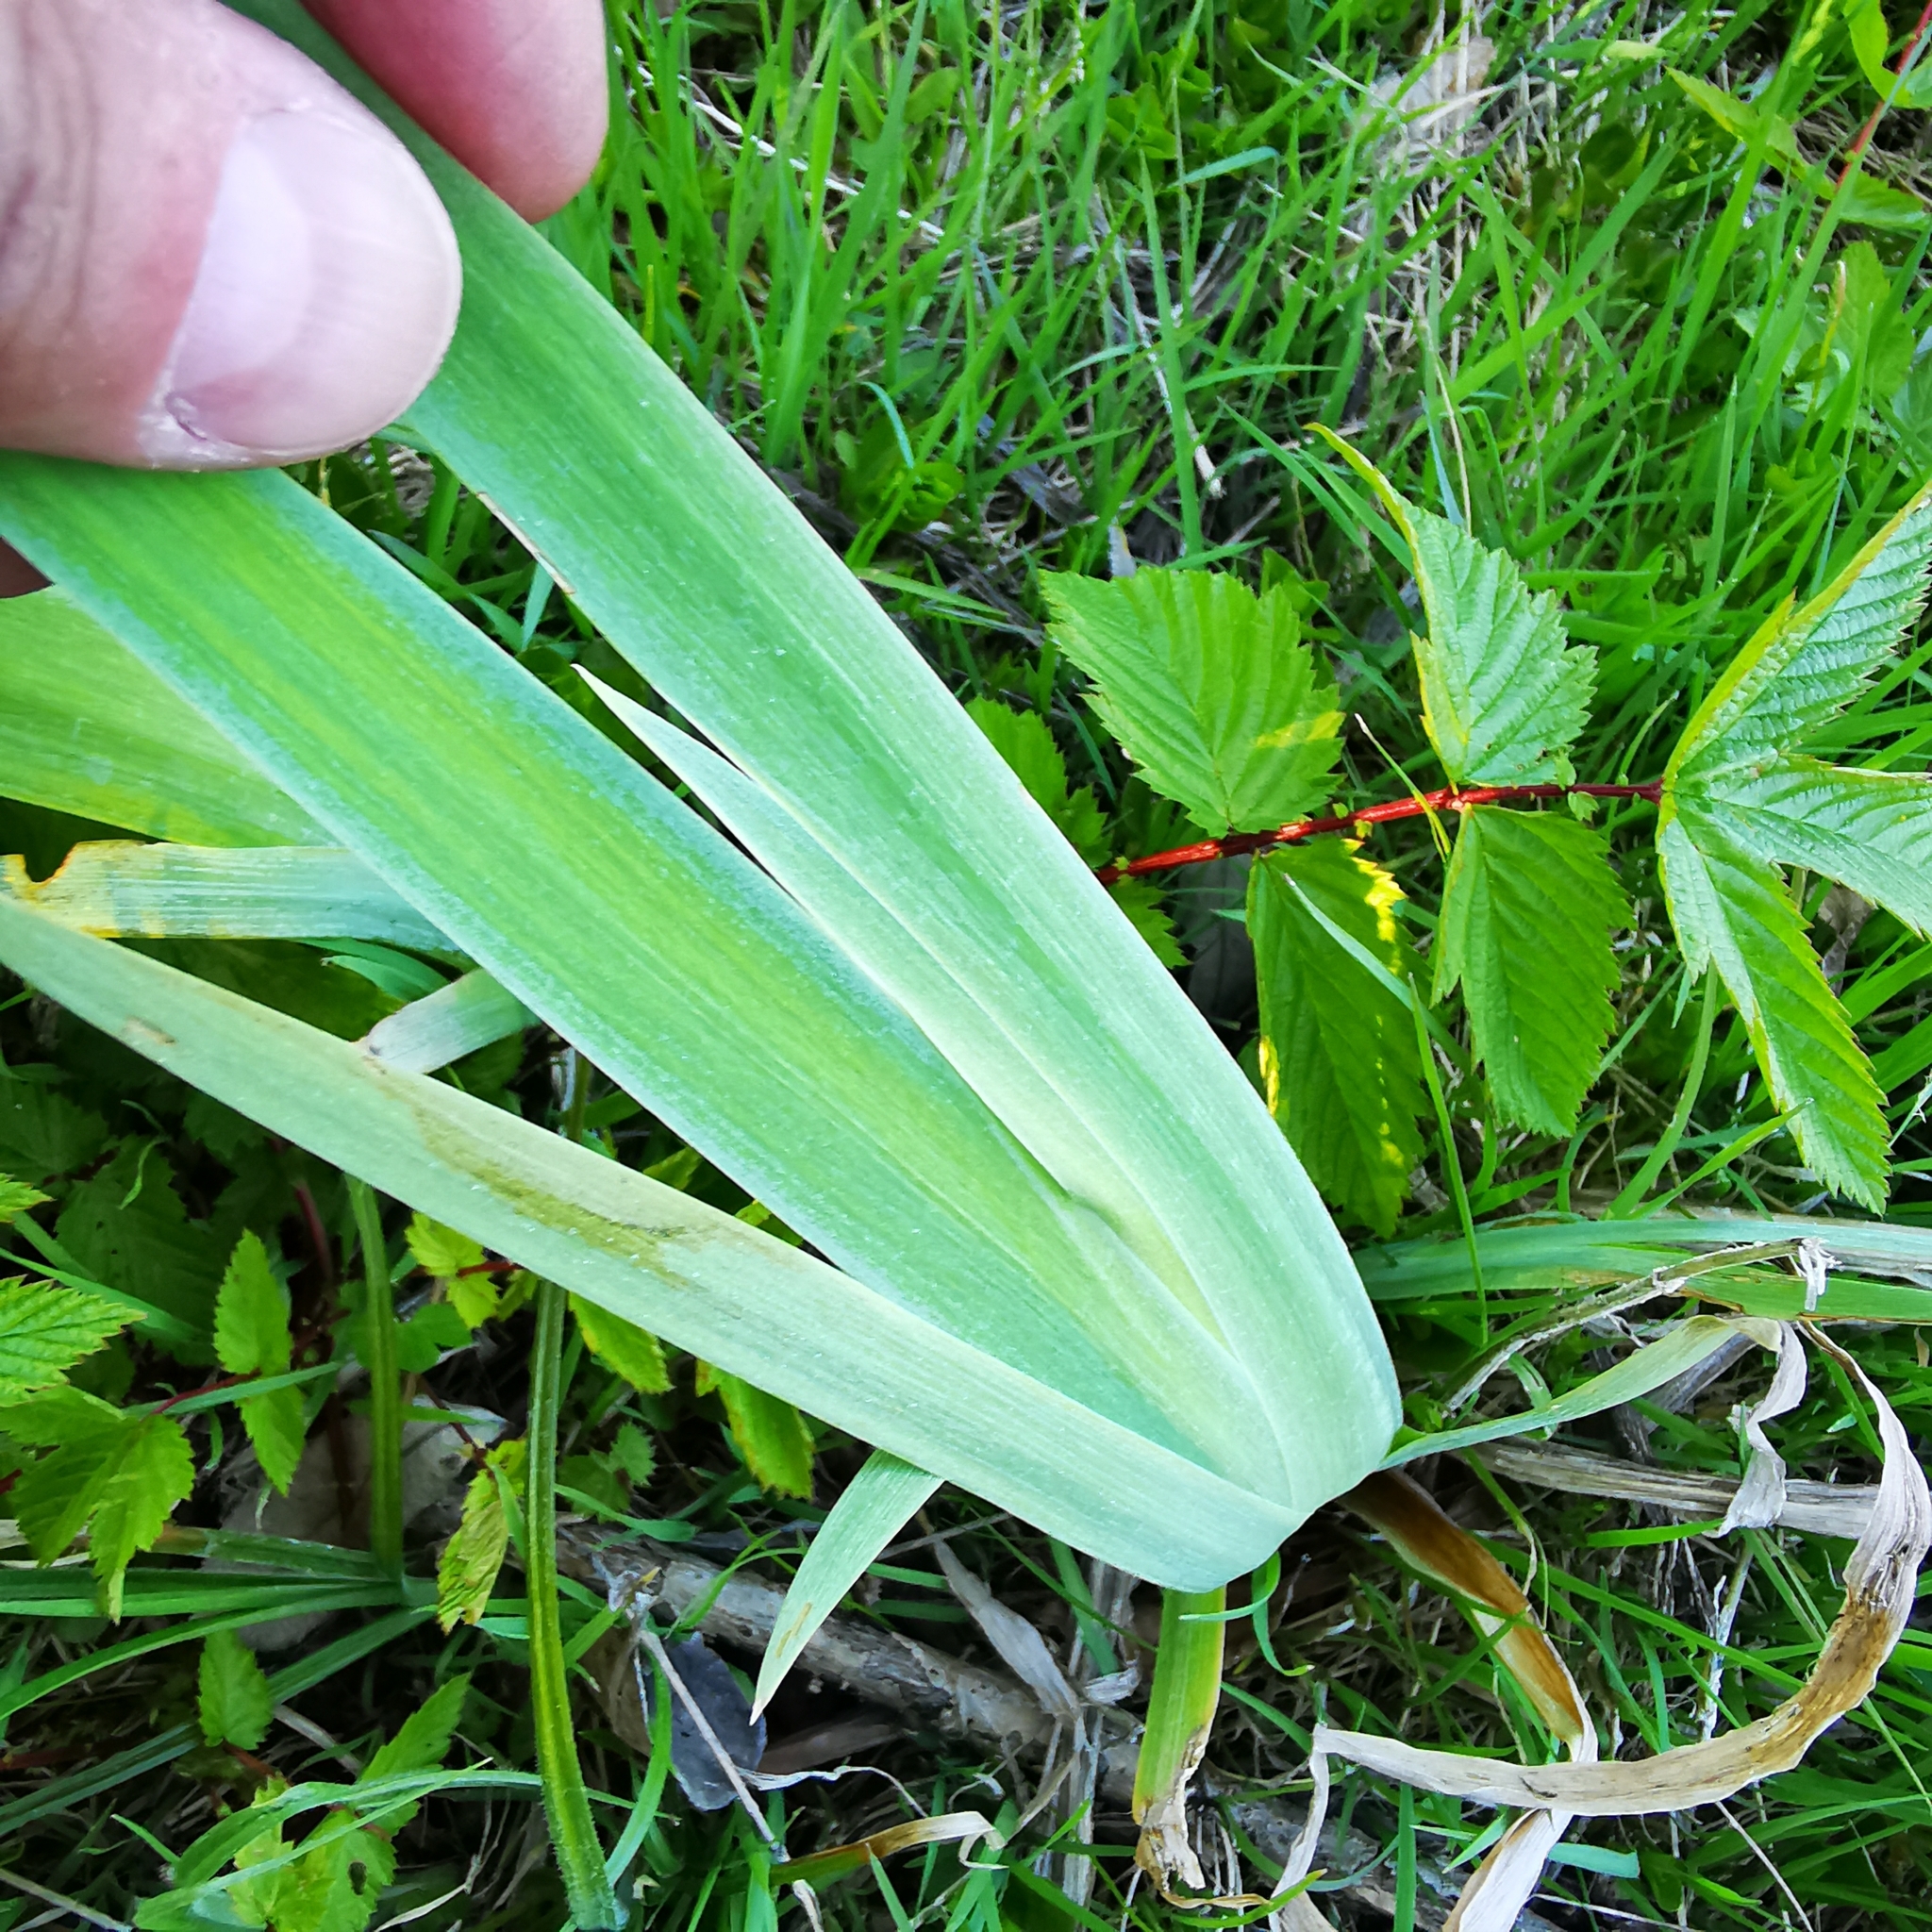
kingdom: Plantae
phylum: Tracheophyta
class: Liliopsida
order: Asparagales
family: Iridaceae
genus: Iris
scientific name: Iris pseudacorus
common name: Yellow flag
